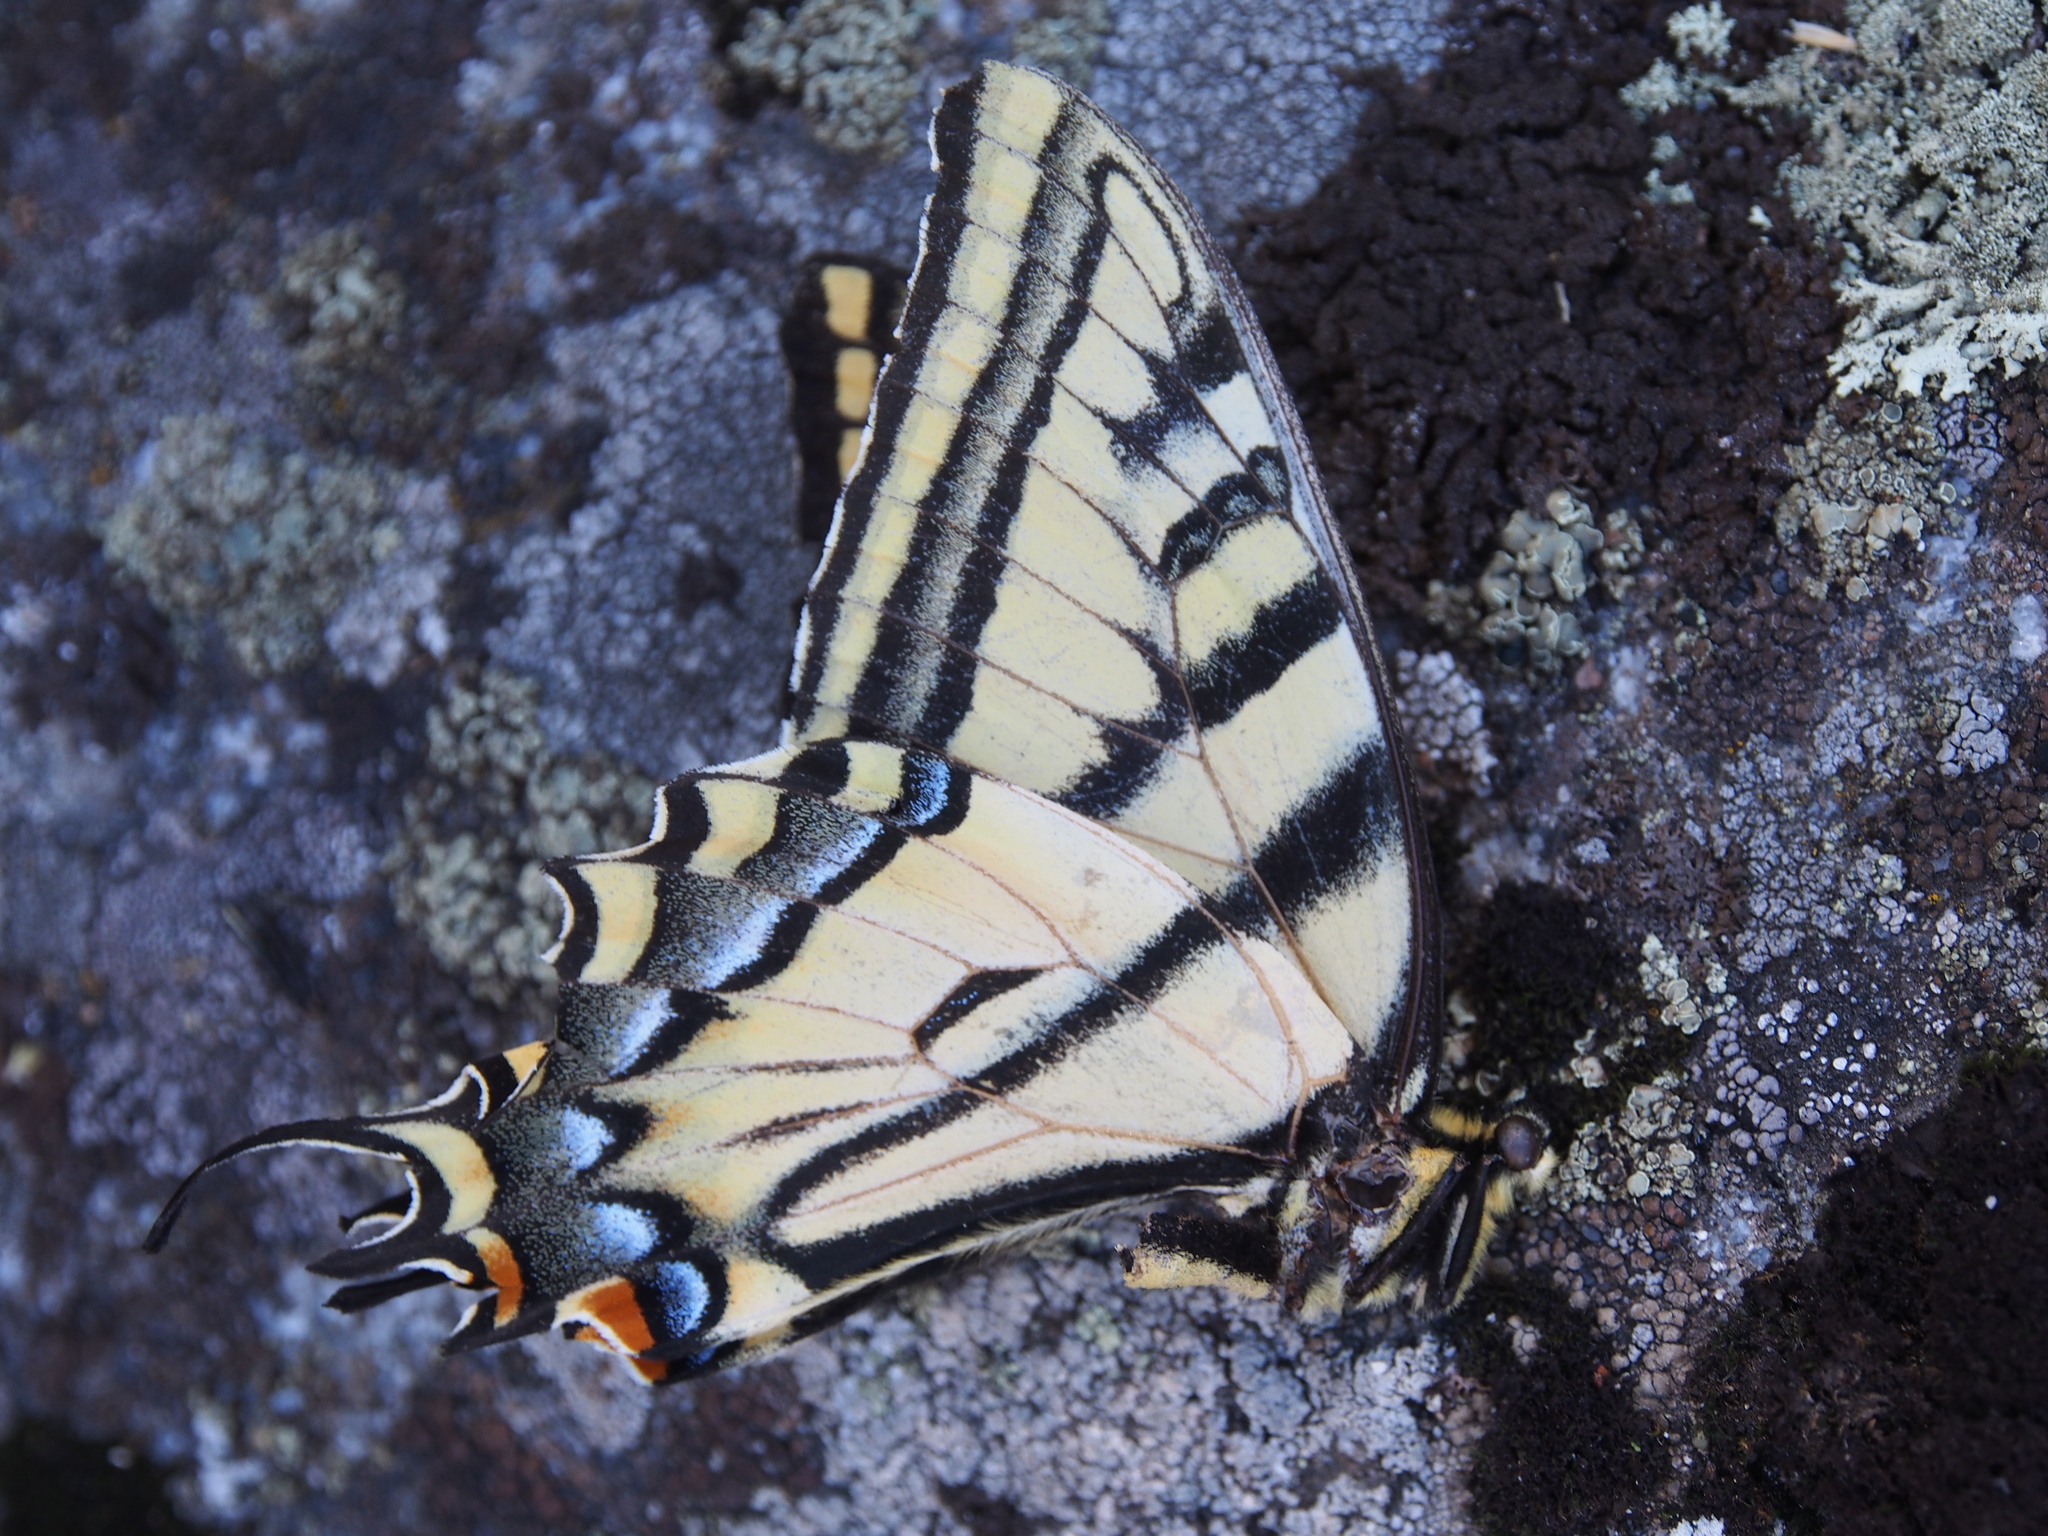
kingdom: Animalia
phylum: Arthropoda
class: Insecta
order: Lepidoptera
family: Papilionidae
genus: Papilio
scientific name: Papilio multicaudata
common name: Two-tailed tiger swallowtail
